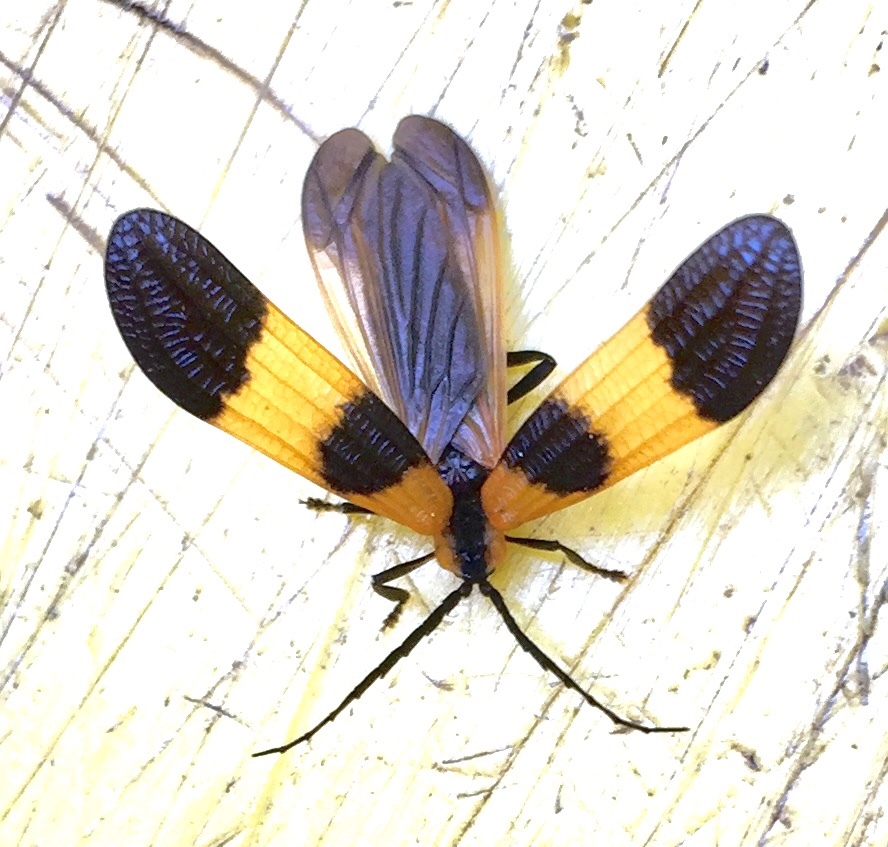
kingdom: Animalia
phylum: Arthropoda
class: Insecta
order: Coleoptera
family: Lycidae
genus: Calopteron
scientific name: Calopteron terminale
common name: End band net-winged beetle
